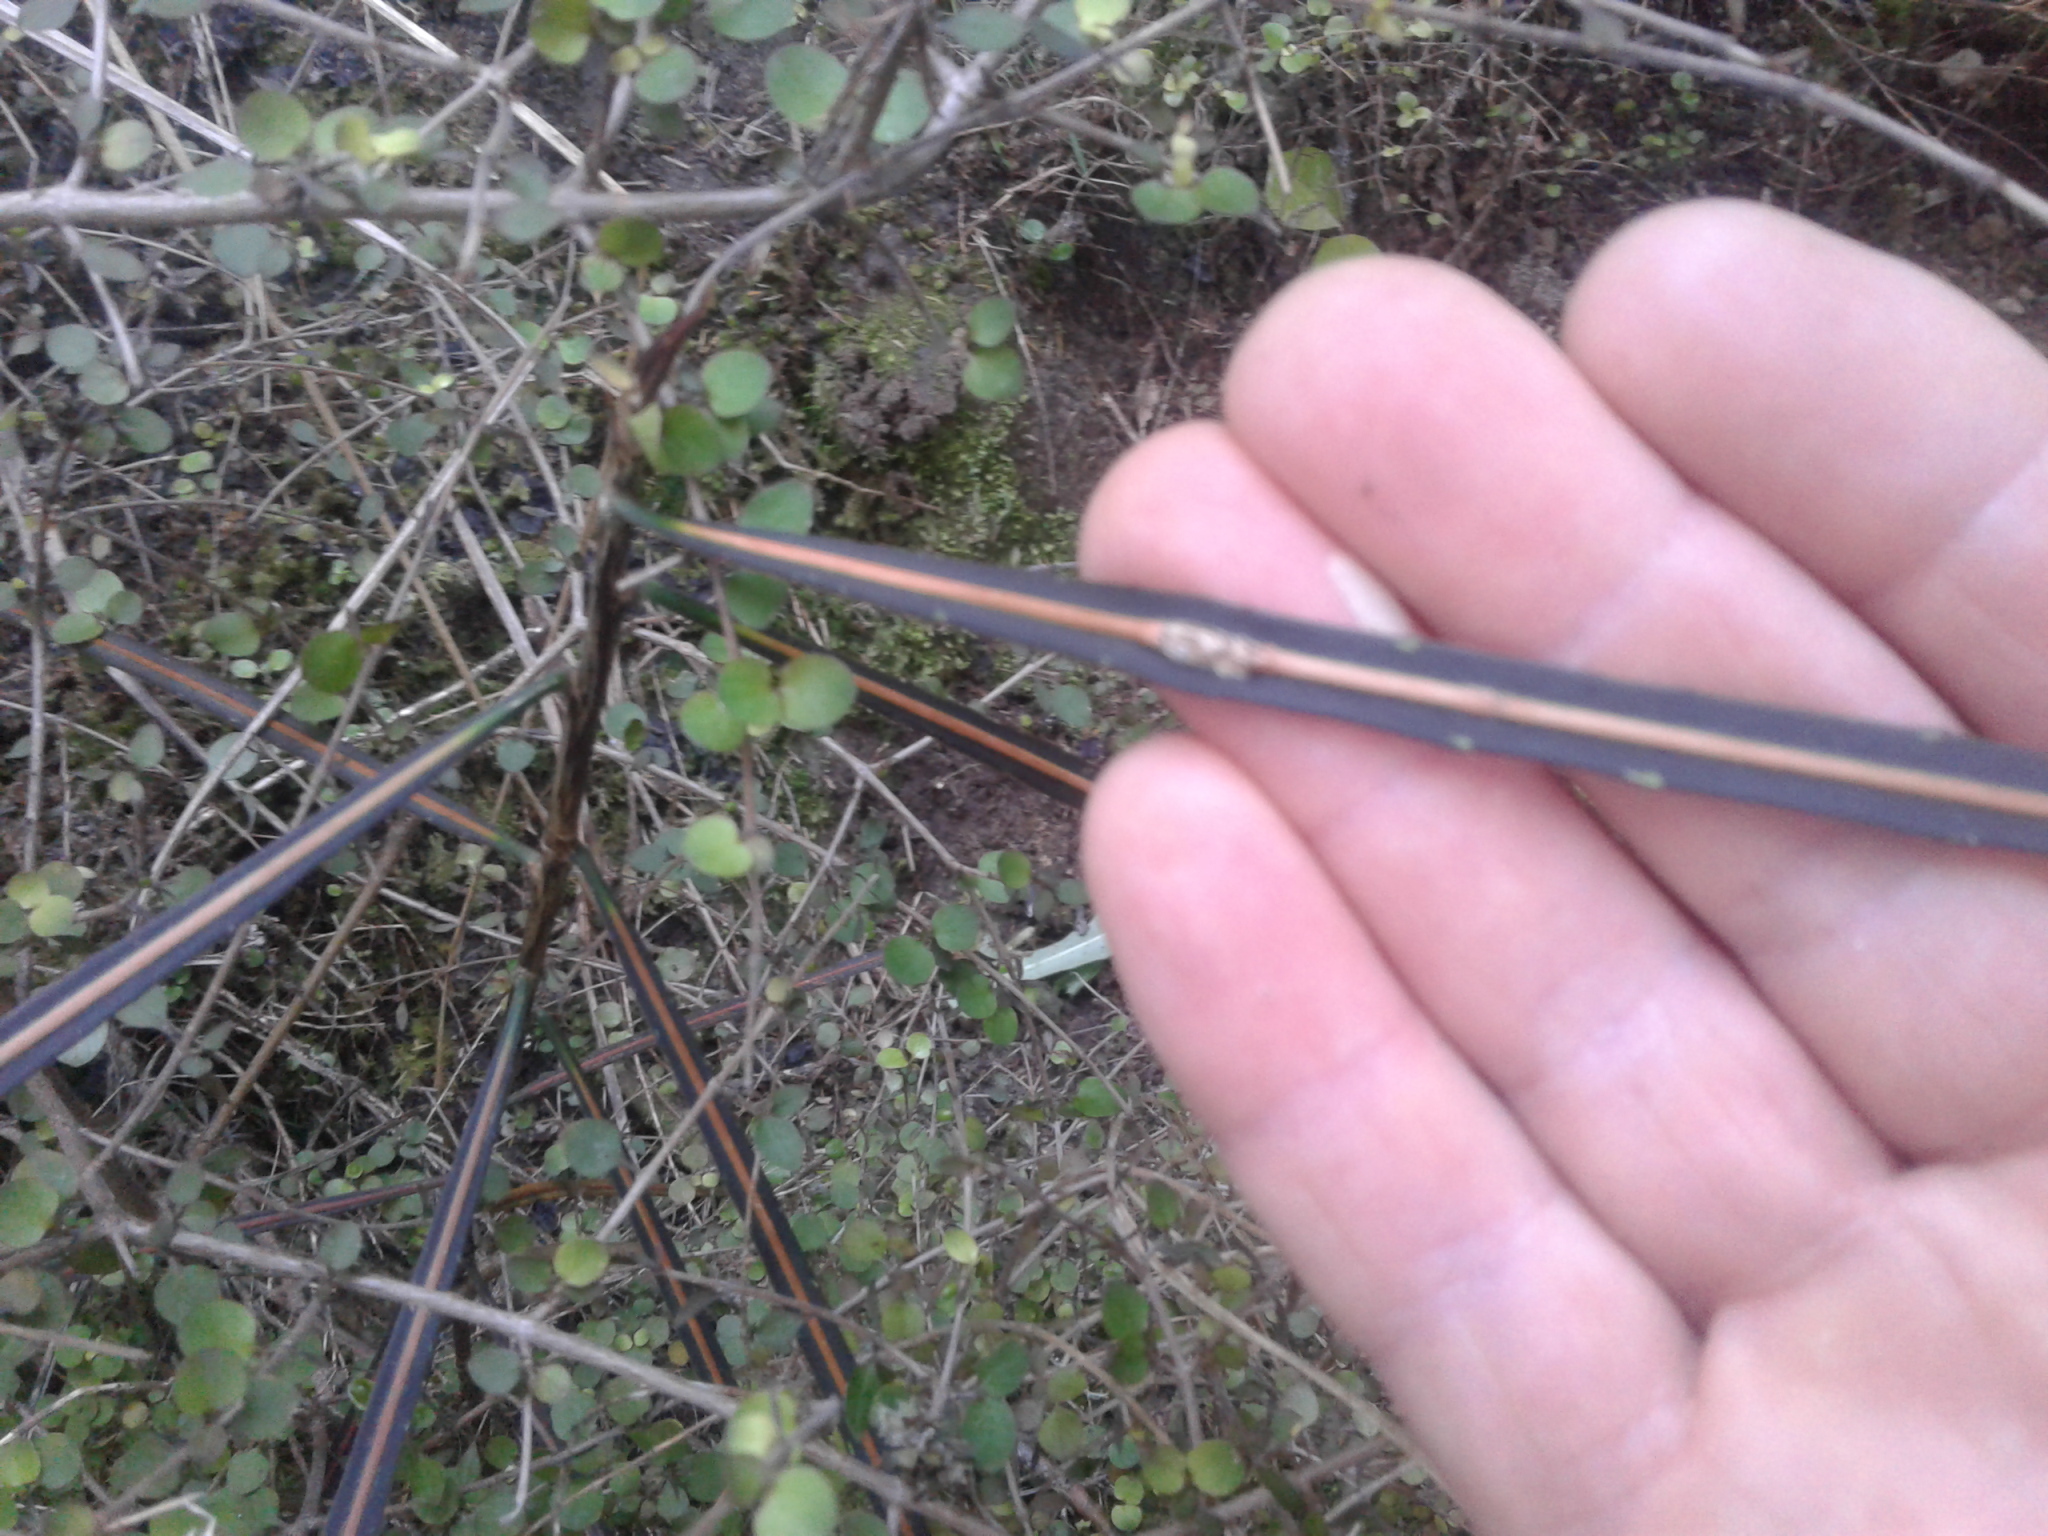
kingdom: Plantae
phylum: Tracheophyta
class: Magnoliopsida
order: Apiales
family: Araliaceae
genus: Pseudopanax
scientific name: Pseudopanax crassifolius
